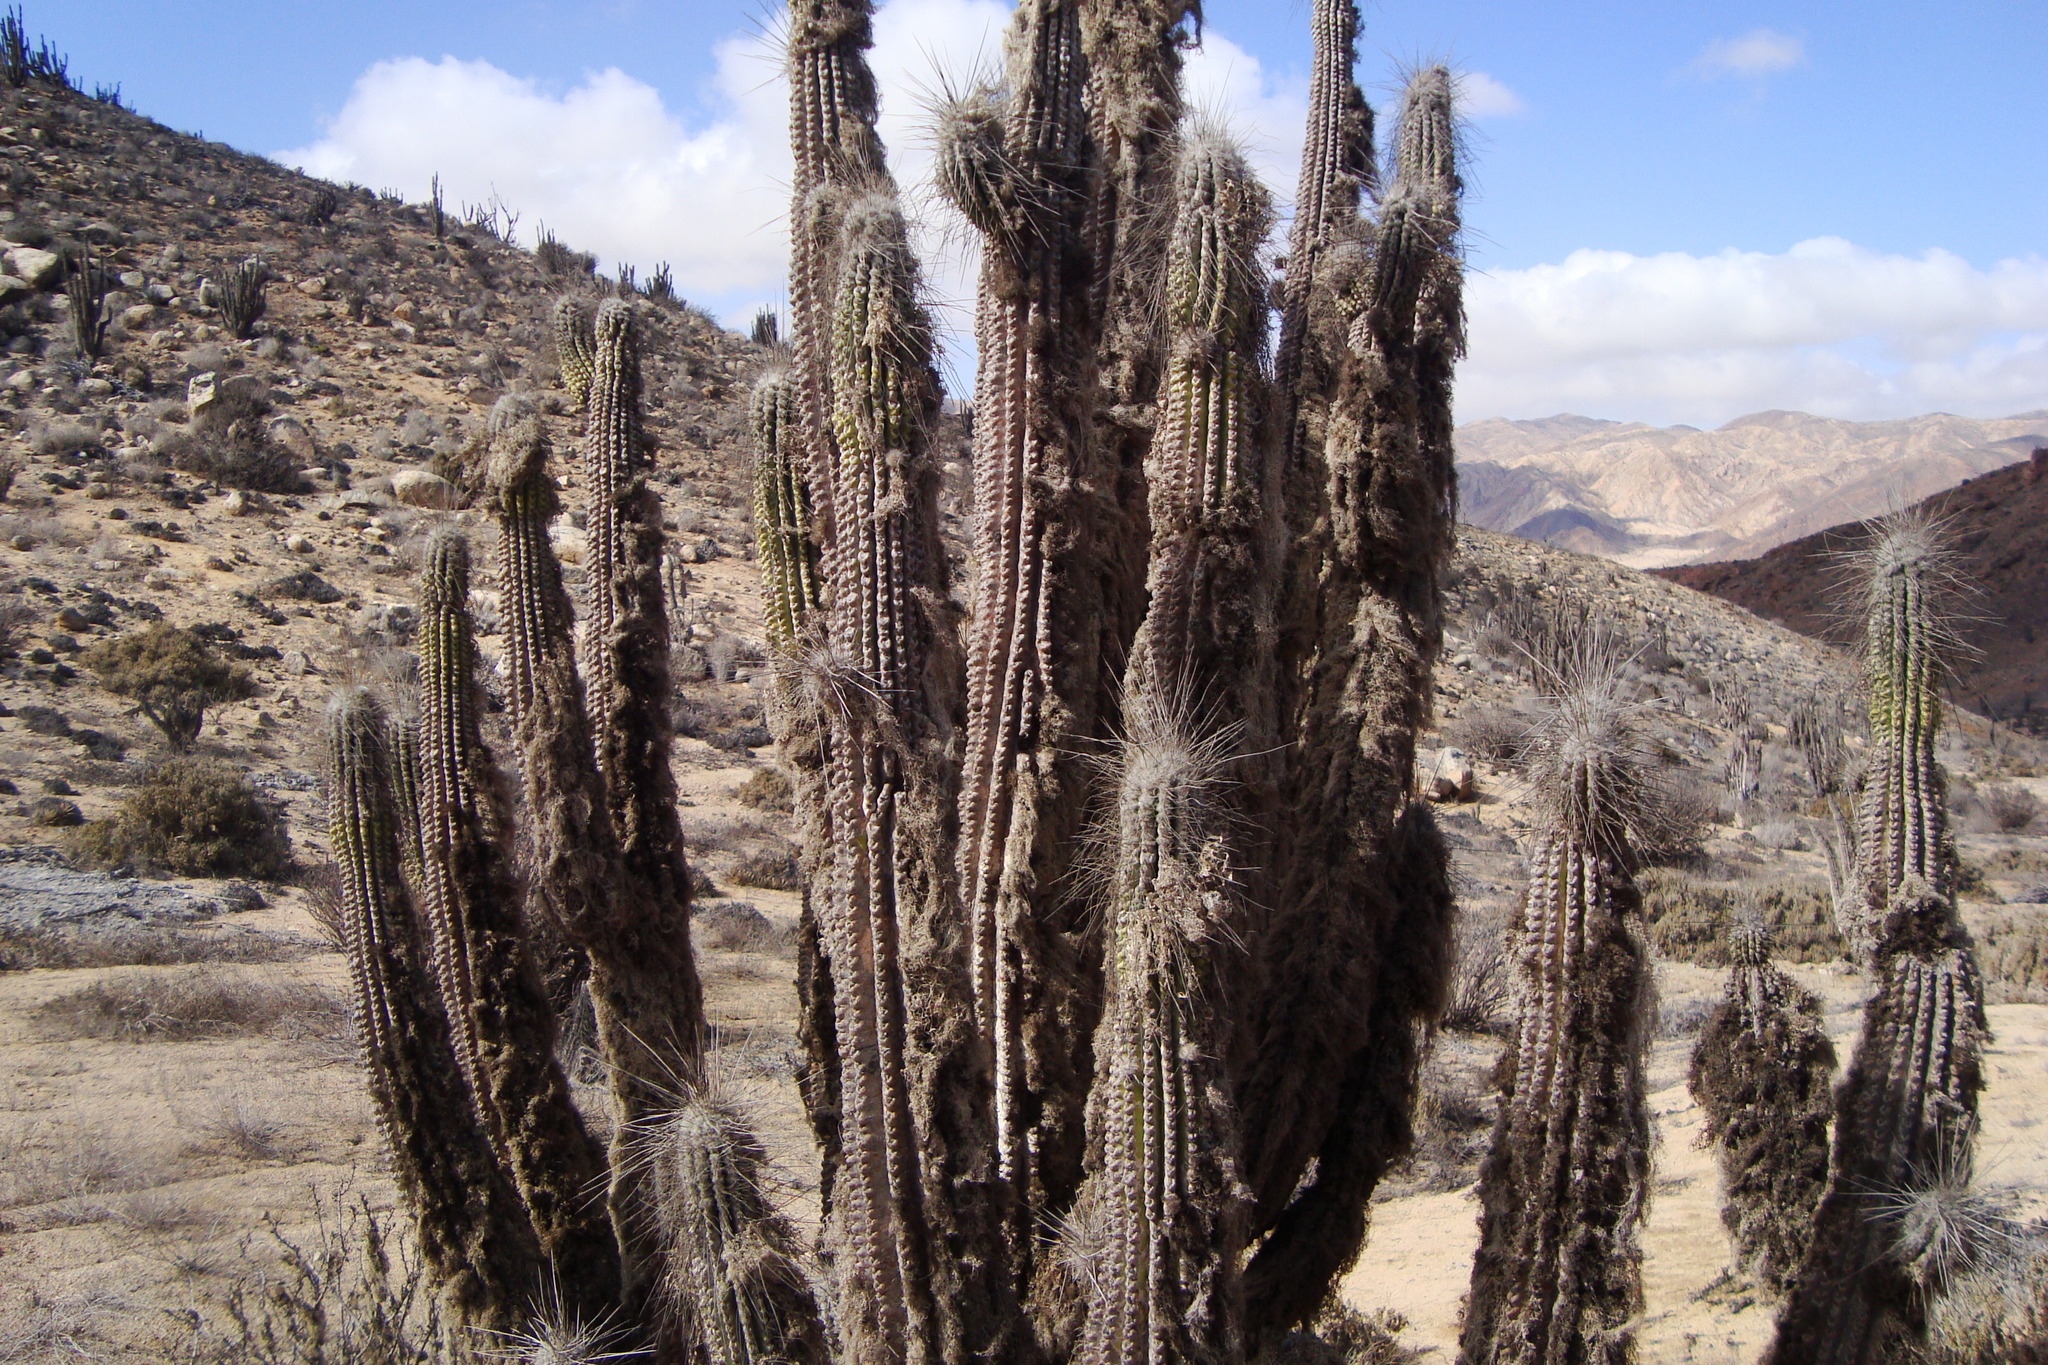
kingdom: Plantae
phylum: Tracheophyta
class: Magnoliopsida
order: Caryophyllales
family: Cactaceae
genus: Eulychnia
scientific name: Eulychnia breviflora
